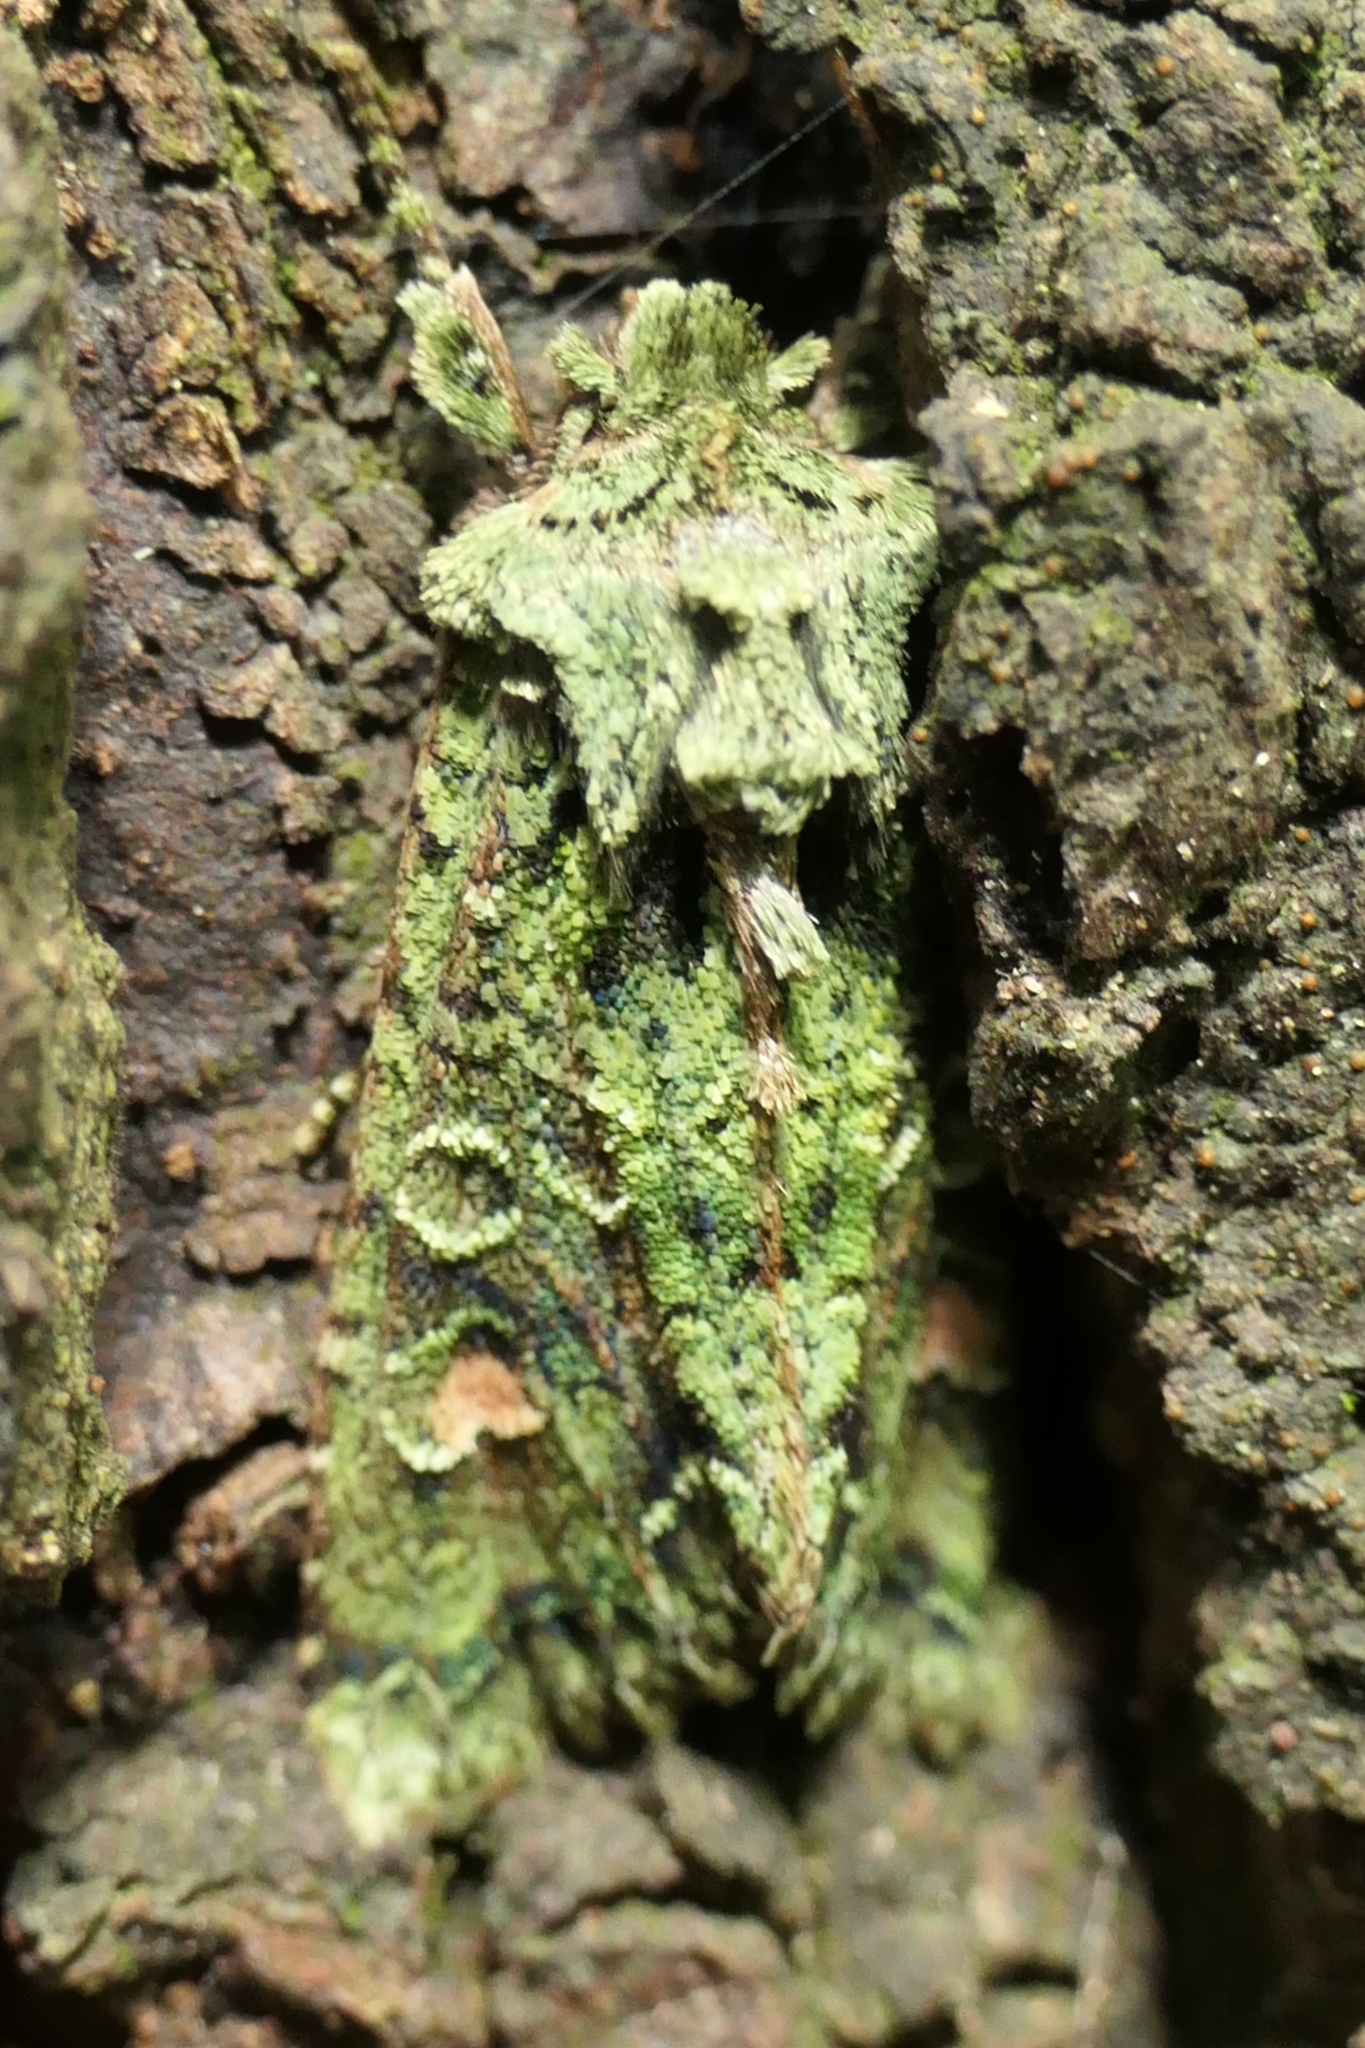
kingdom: Animalia
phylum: Arthropoda
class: Insecta
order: Lepidoptera
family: Noctuidae
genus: Ichneutica
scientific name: Ichneutica
